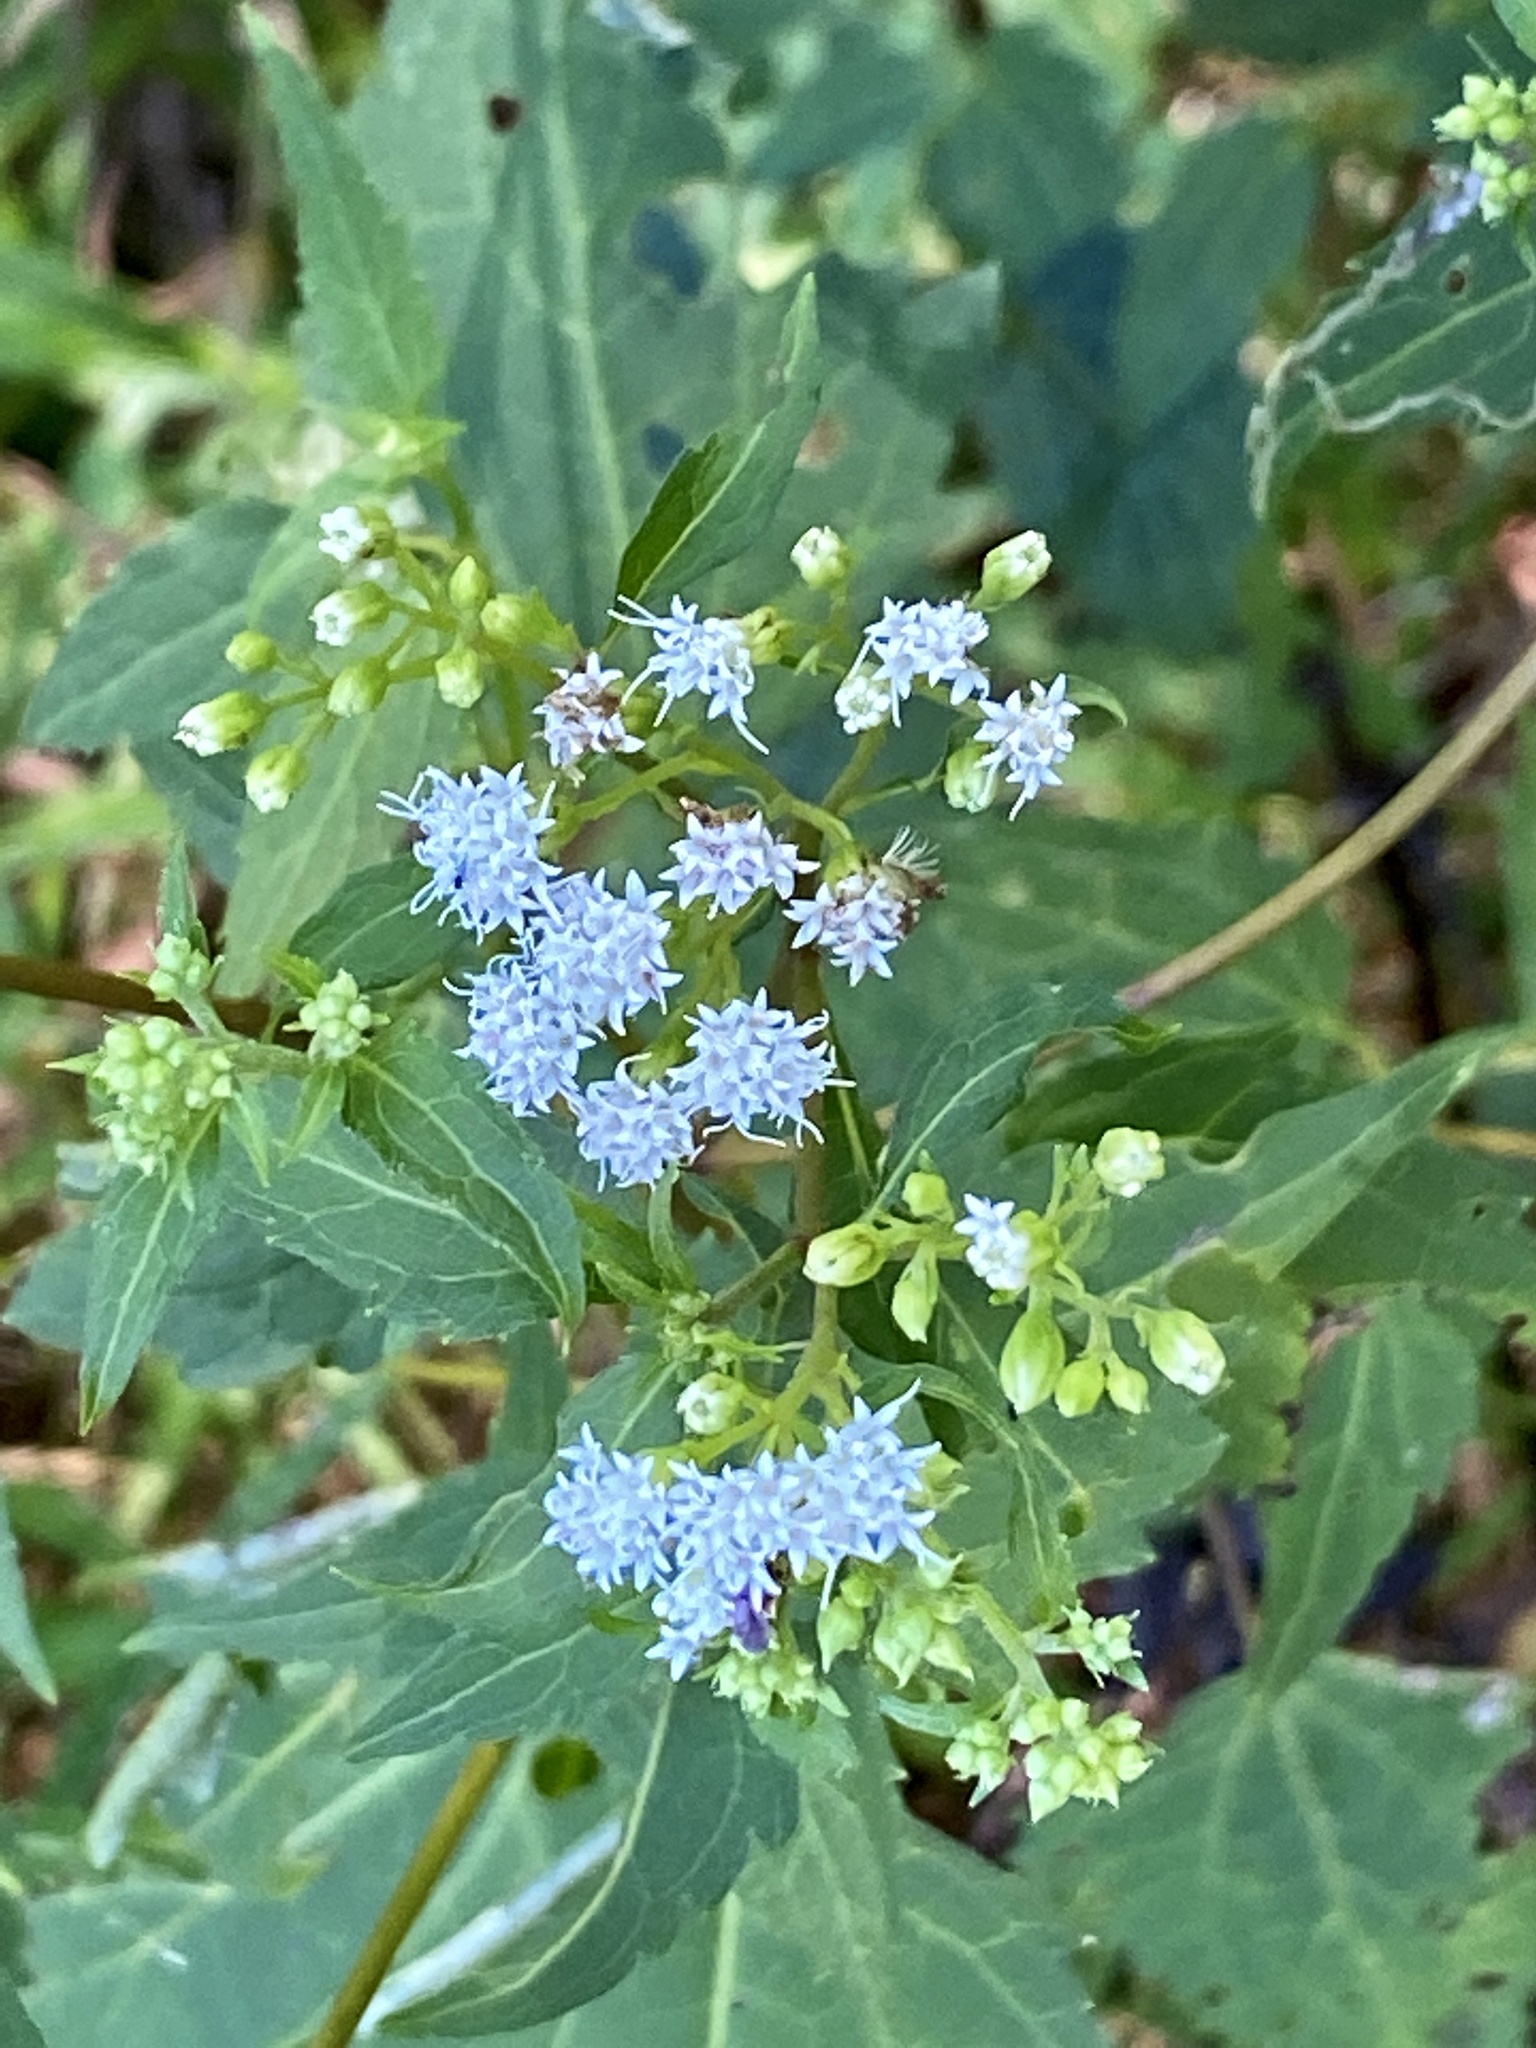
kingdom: Plantae
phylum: Tracheophyta
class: Magnoliopsida
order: Asterales
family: Asteraceae
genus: Ageratina
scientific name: Ageratina altissima
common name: White snakeroot
